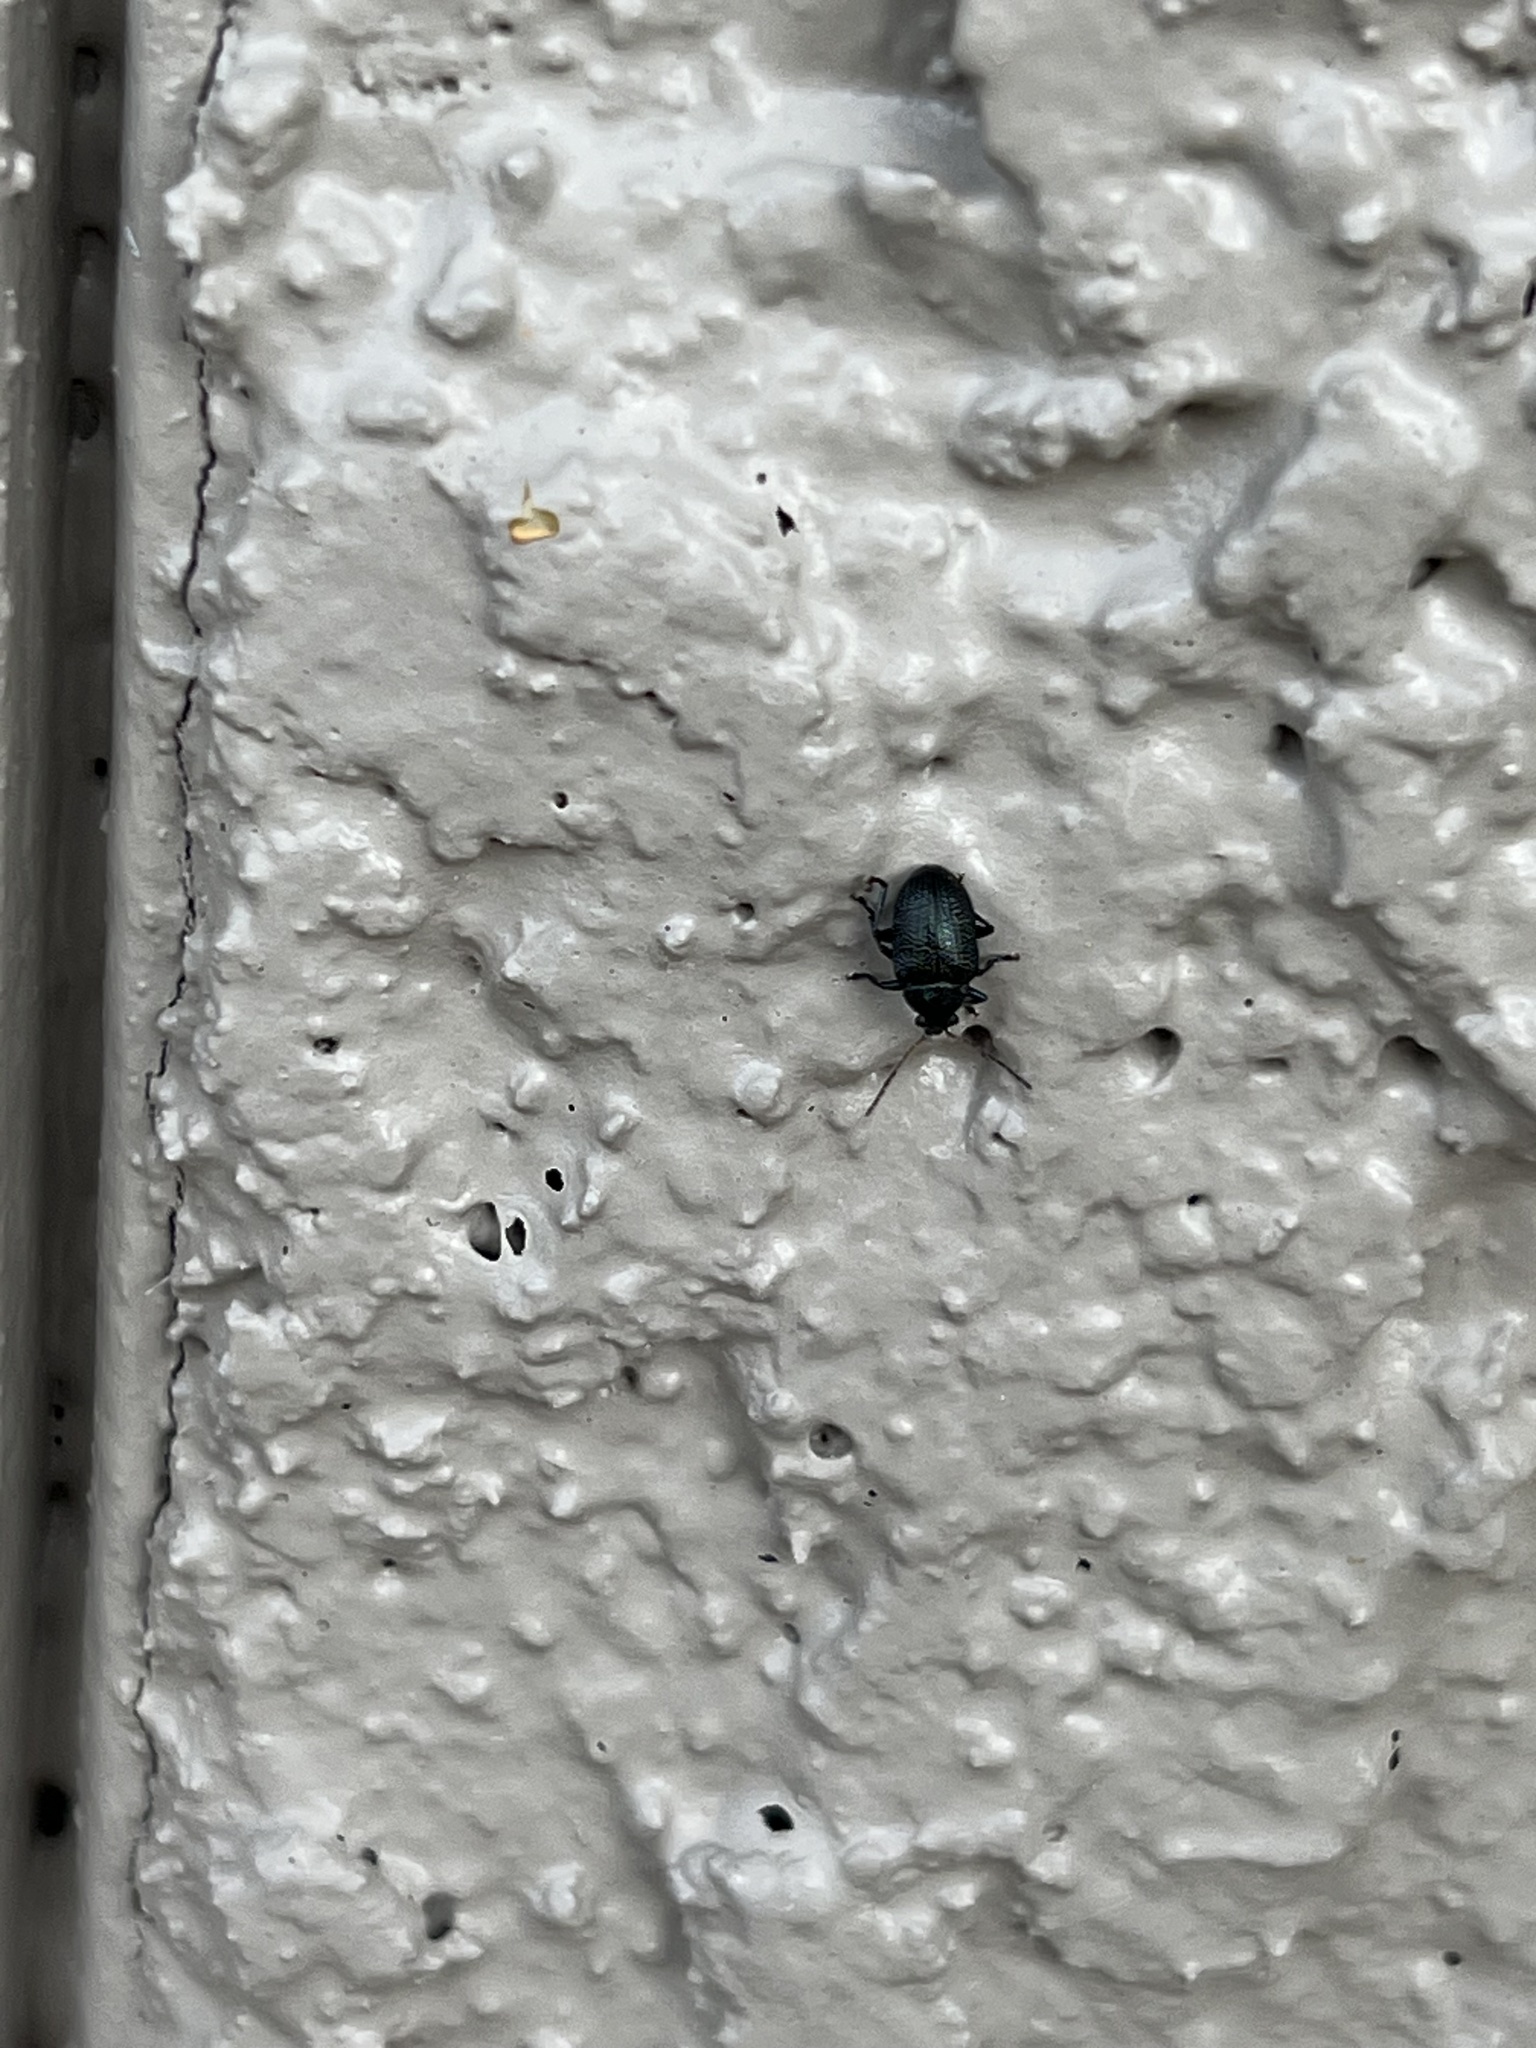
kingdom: Animalia
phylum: Arthropoda
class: Insecta
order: Coleoptera
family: Chrysomelidae
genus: Colaspis
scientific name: Colaspis nigrocyanea
